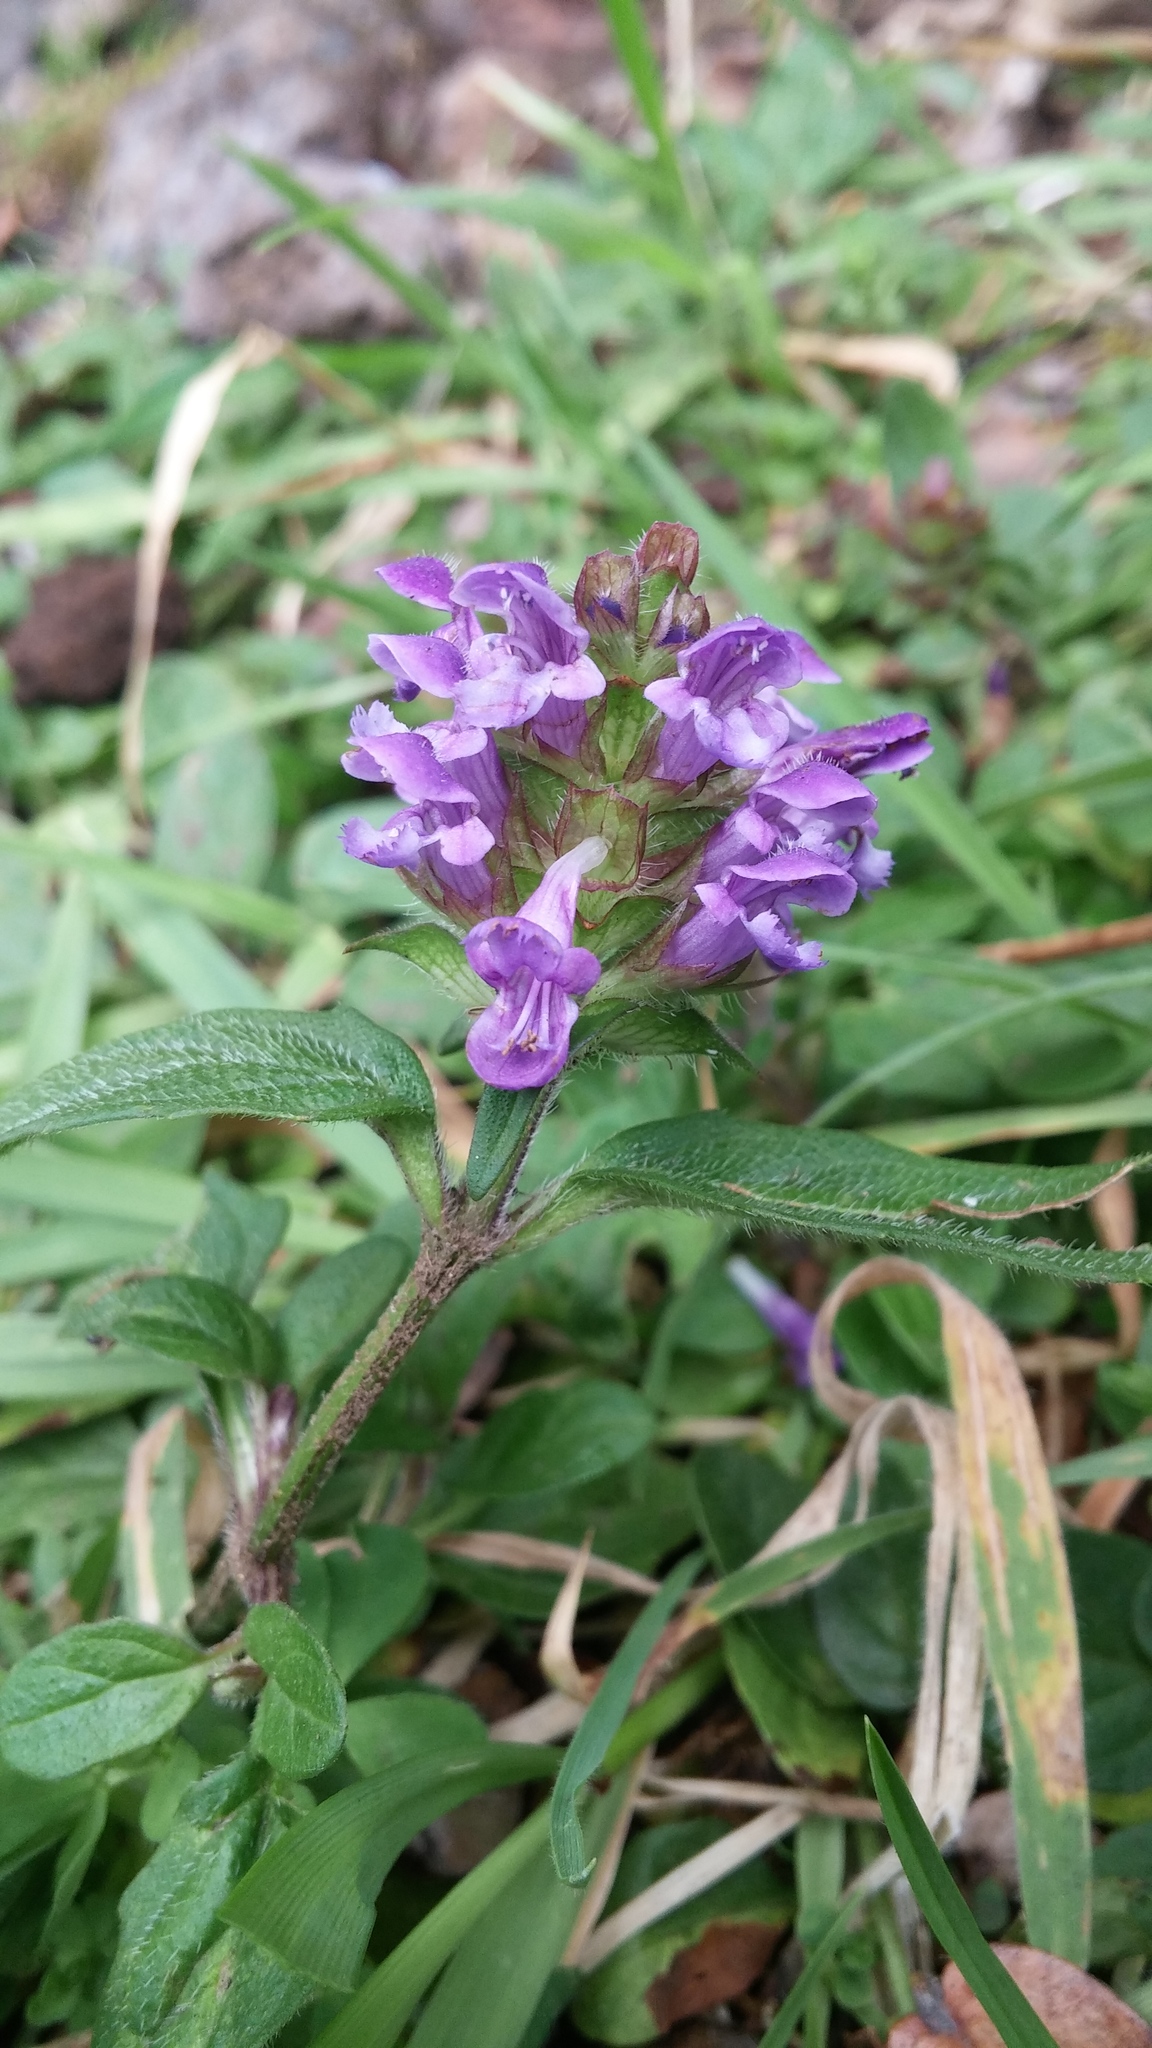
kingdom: Plantae
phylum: Tracheophyta
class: Magnoliopsida
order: Lamiales
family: Lamiaceae
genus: Prunella
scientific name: Prunella vulgaris
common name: Heal-all
